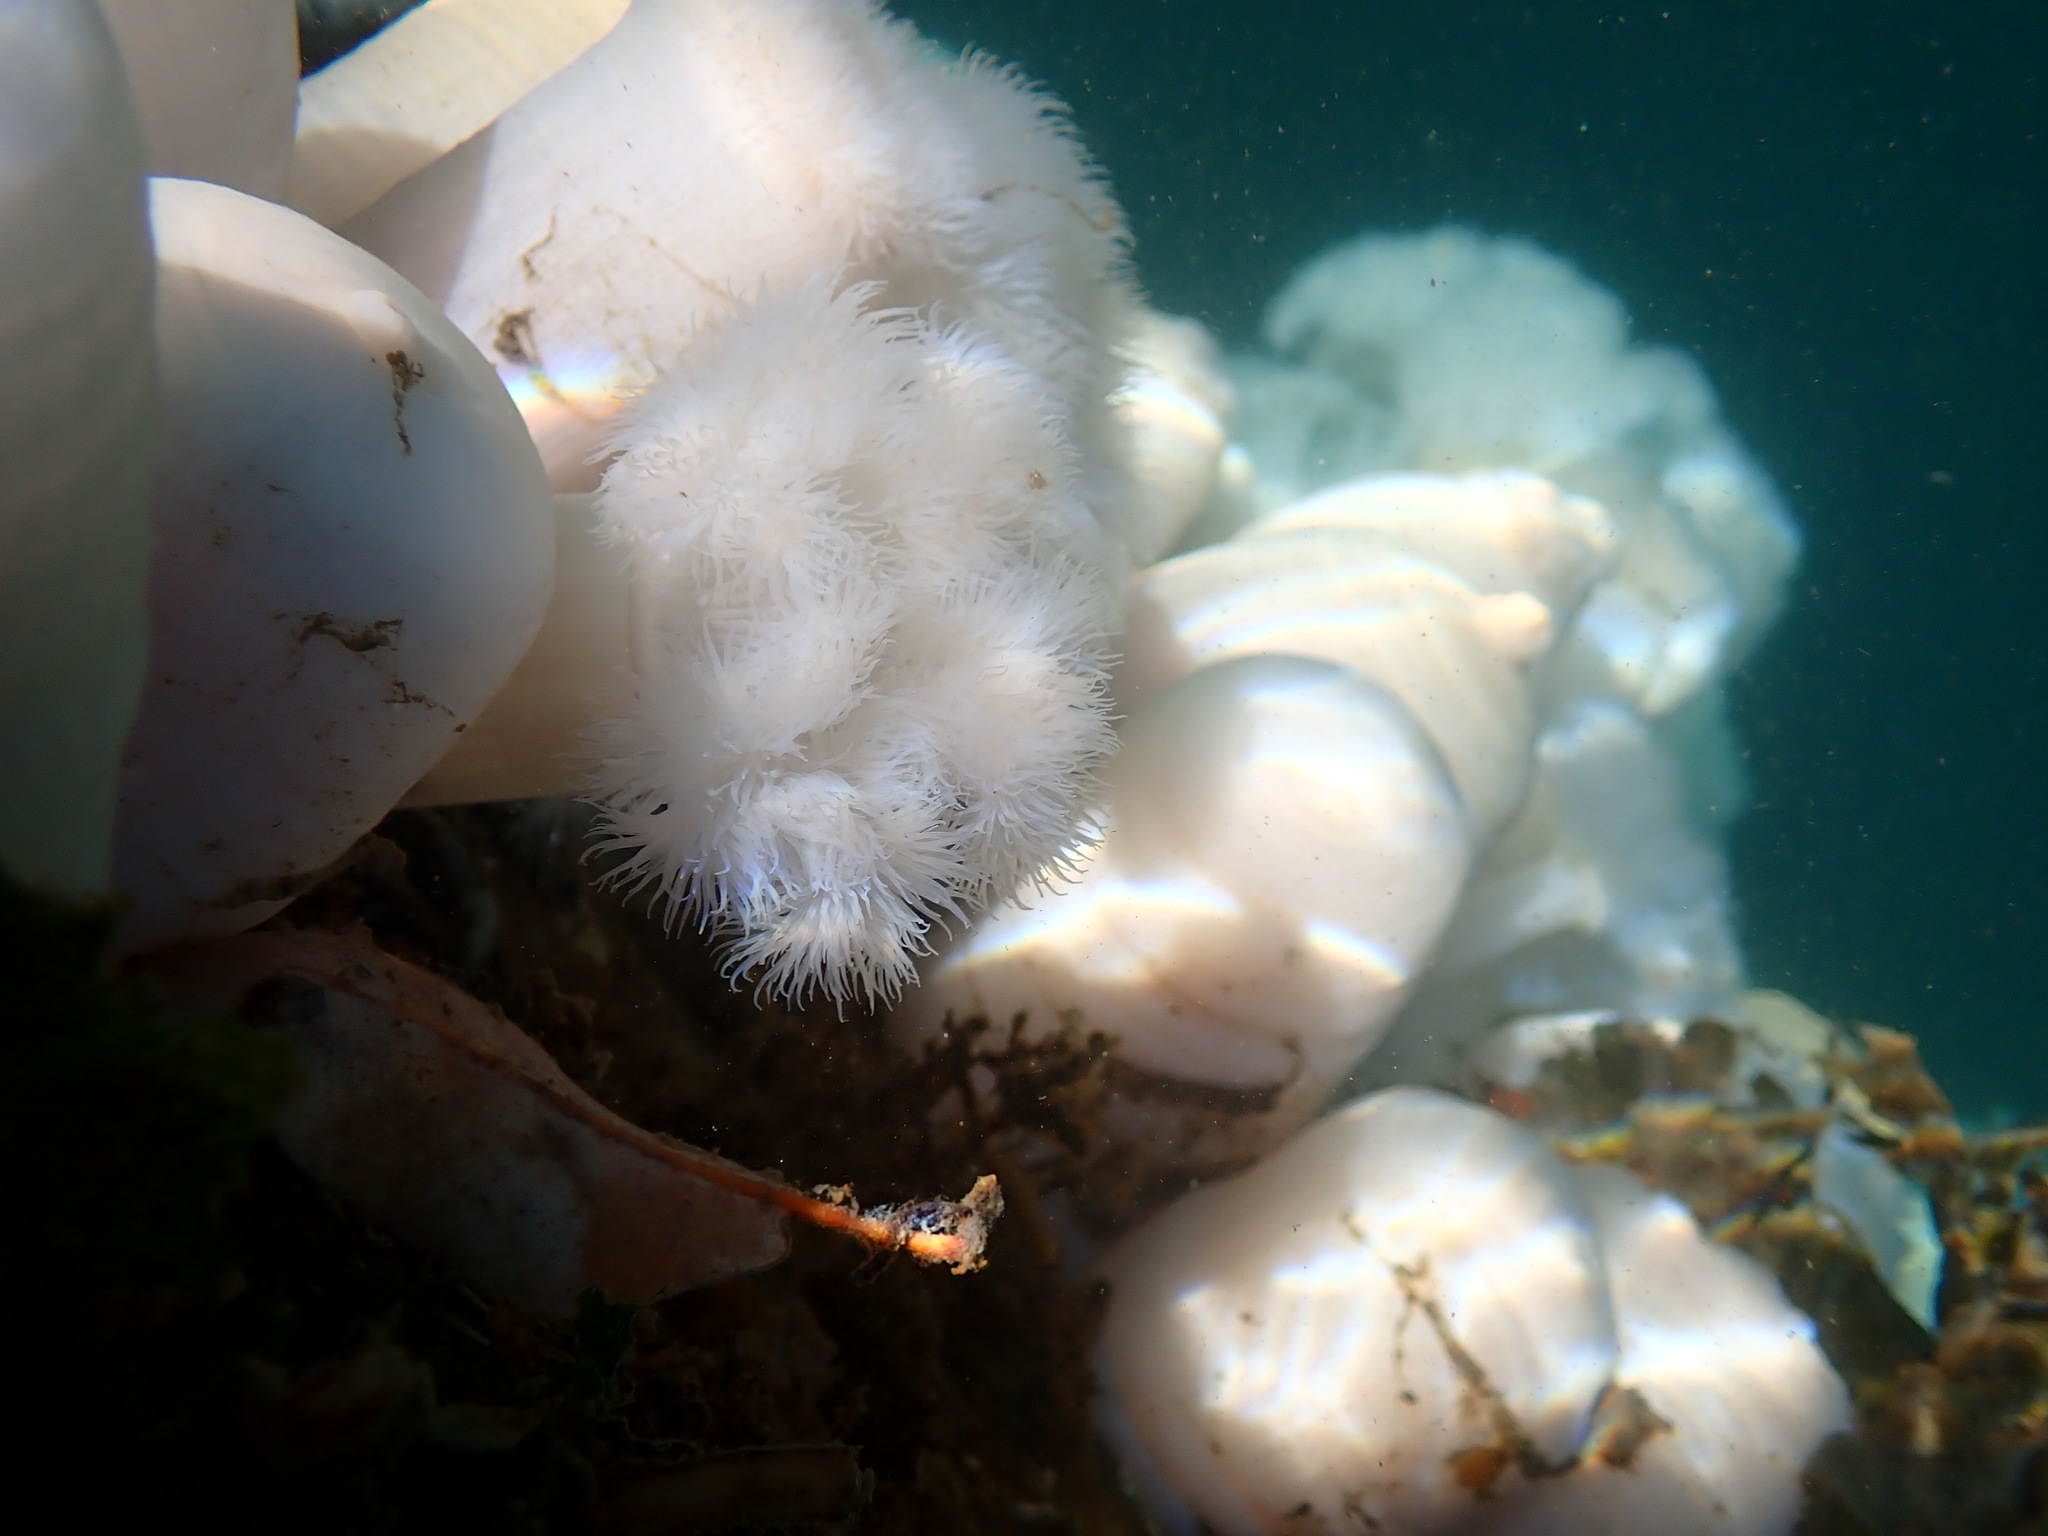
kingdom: Animalia
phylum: Cnidaria
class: Anthozoa
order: Actiniaria
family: Metridiidae
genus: Metridium
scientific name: Metridium senile
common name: Clonal plumose anemone
